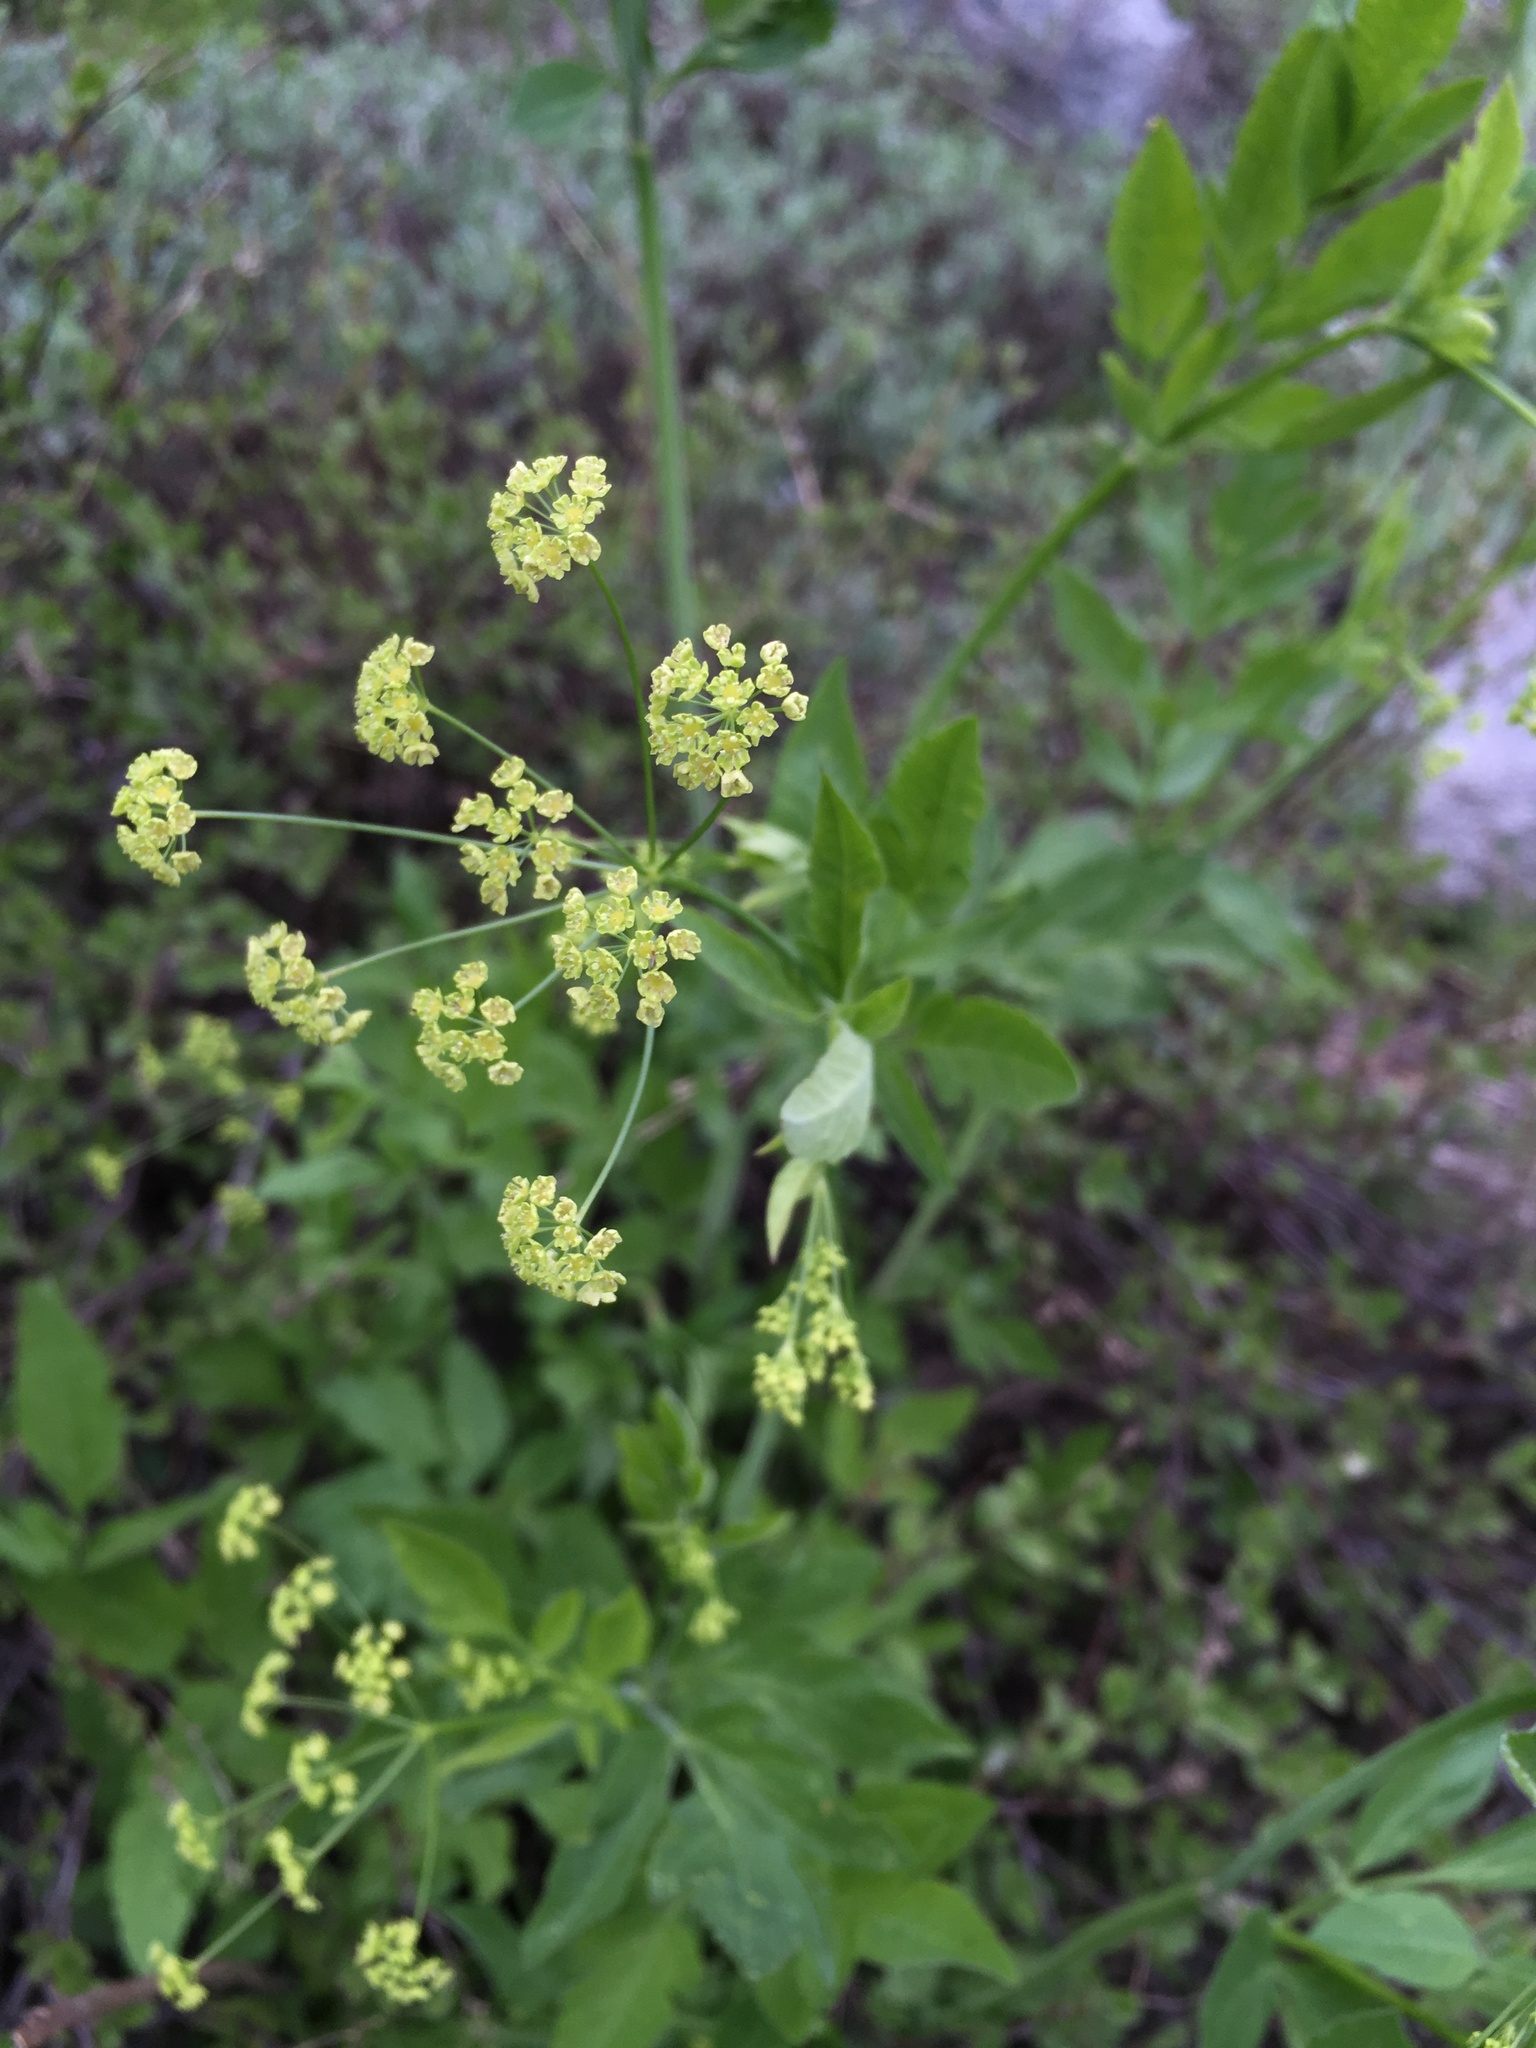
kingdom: Plantae
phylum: Tracheophyta
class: Magnoliopsida
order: Apiales
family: Apiaceae
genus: Osmorhiza
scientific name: Osmorhiza occidentalis
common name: Western sweet cicely
